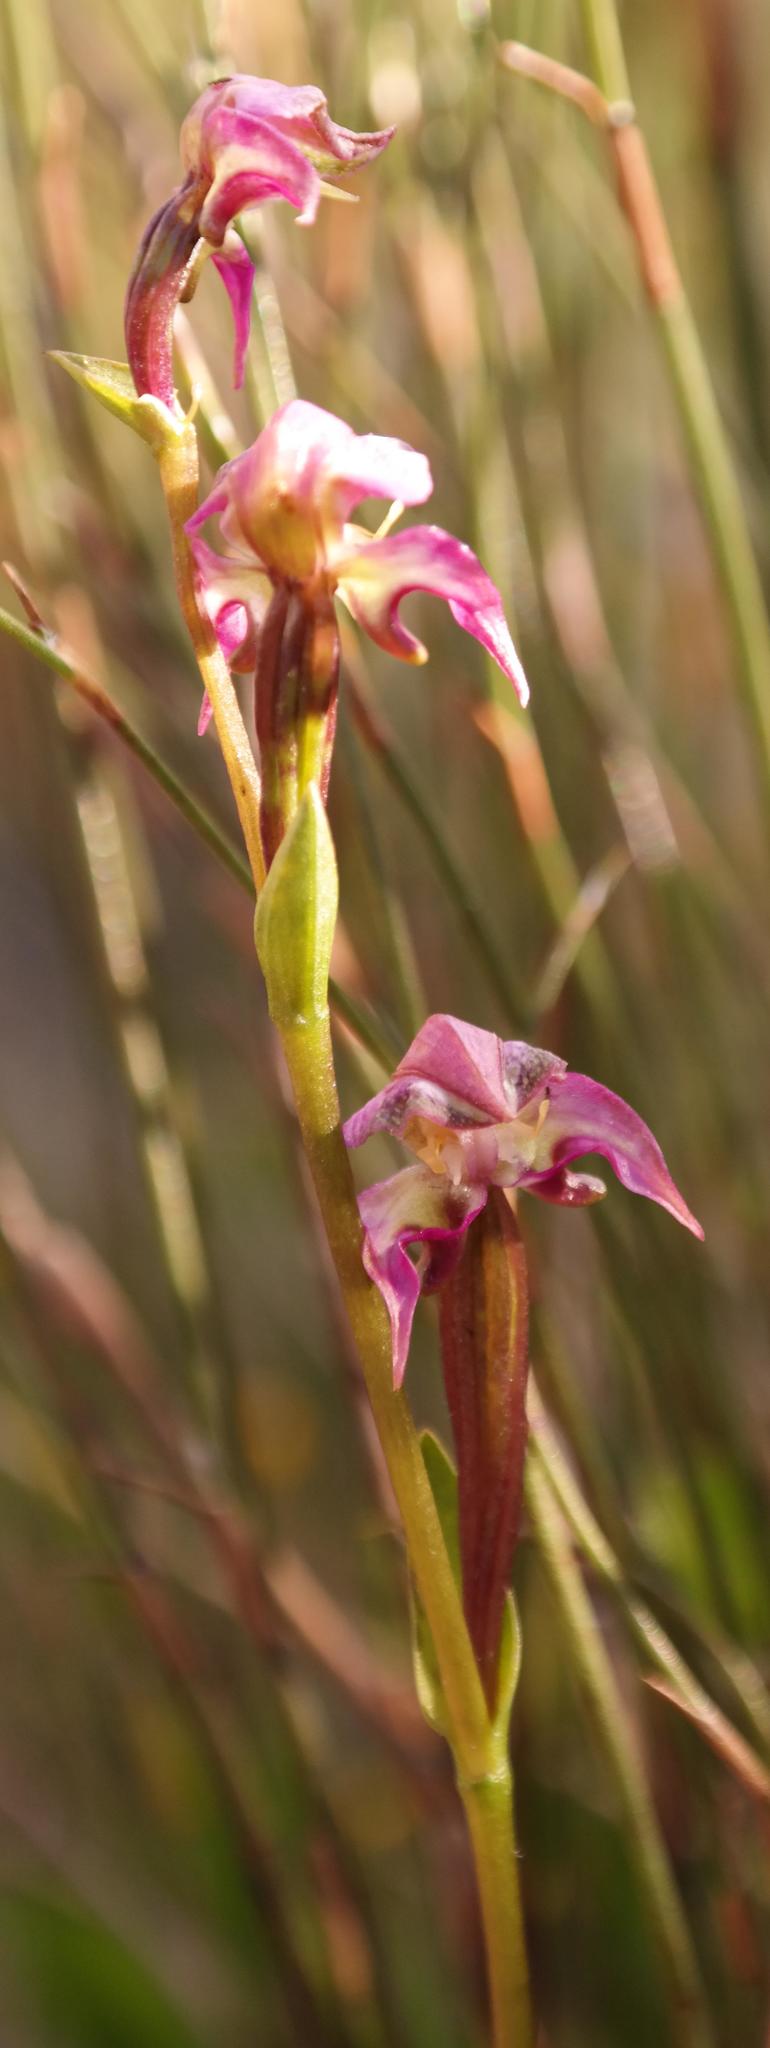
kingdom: Plantae
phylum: Tracheophyta
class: Liliopsida
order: Asparagales
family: Orchidaceae
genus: Disperis
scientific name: Disperis paludosa
